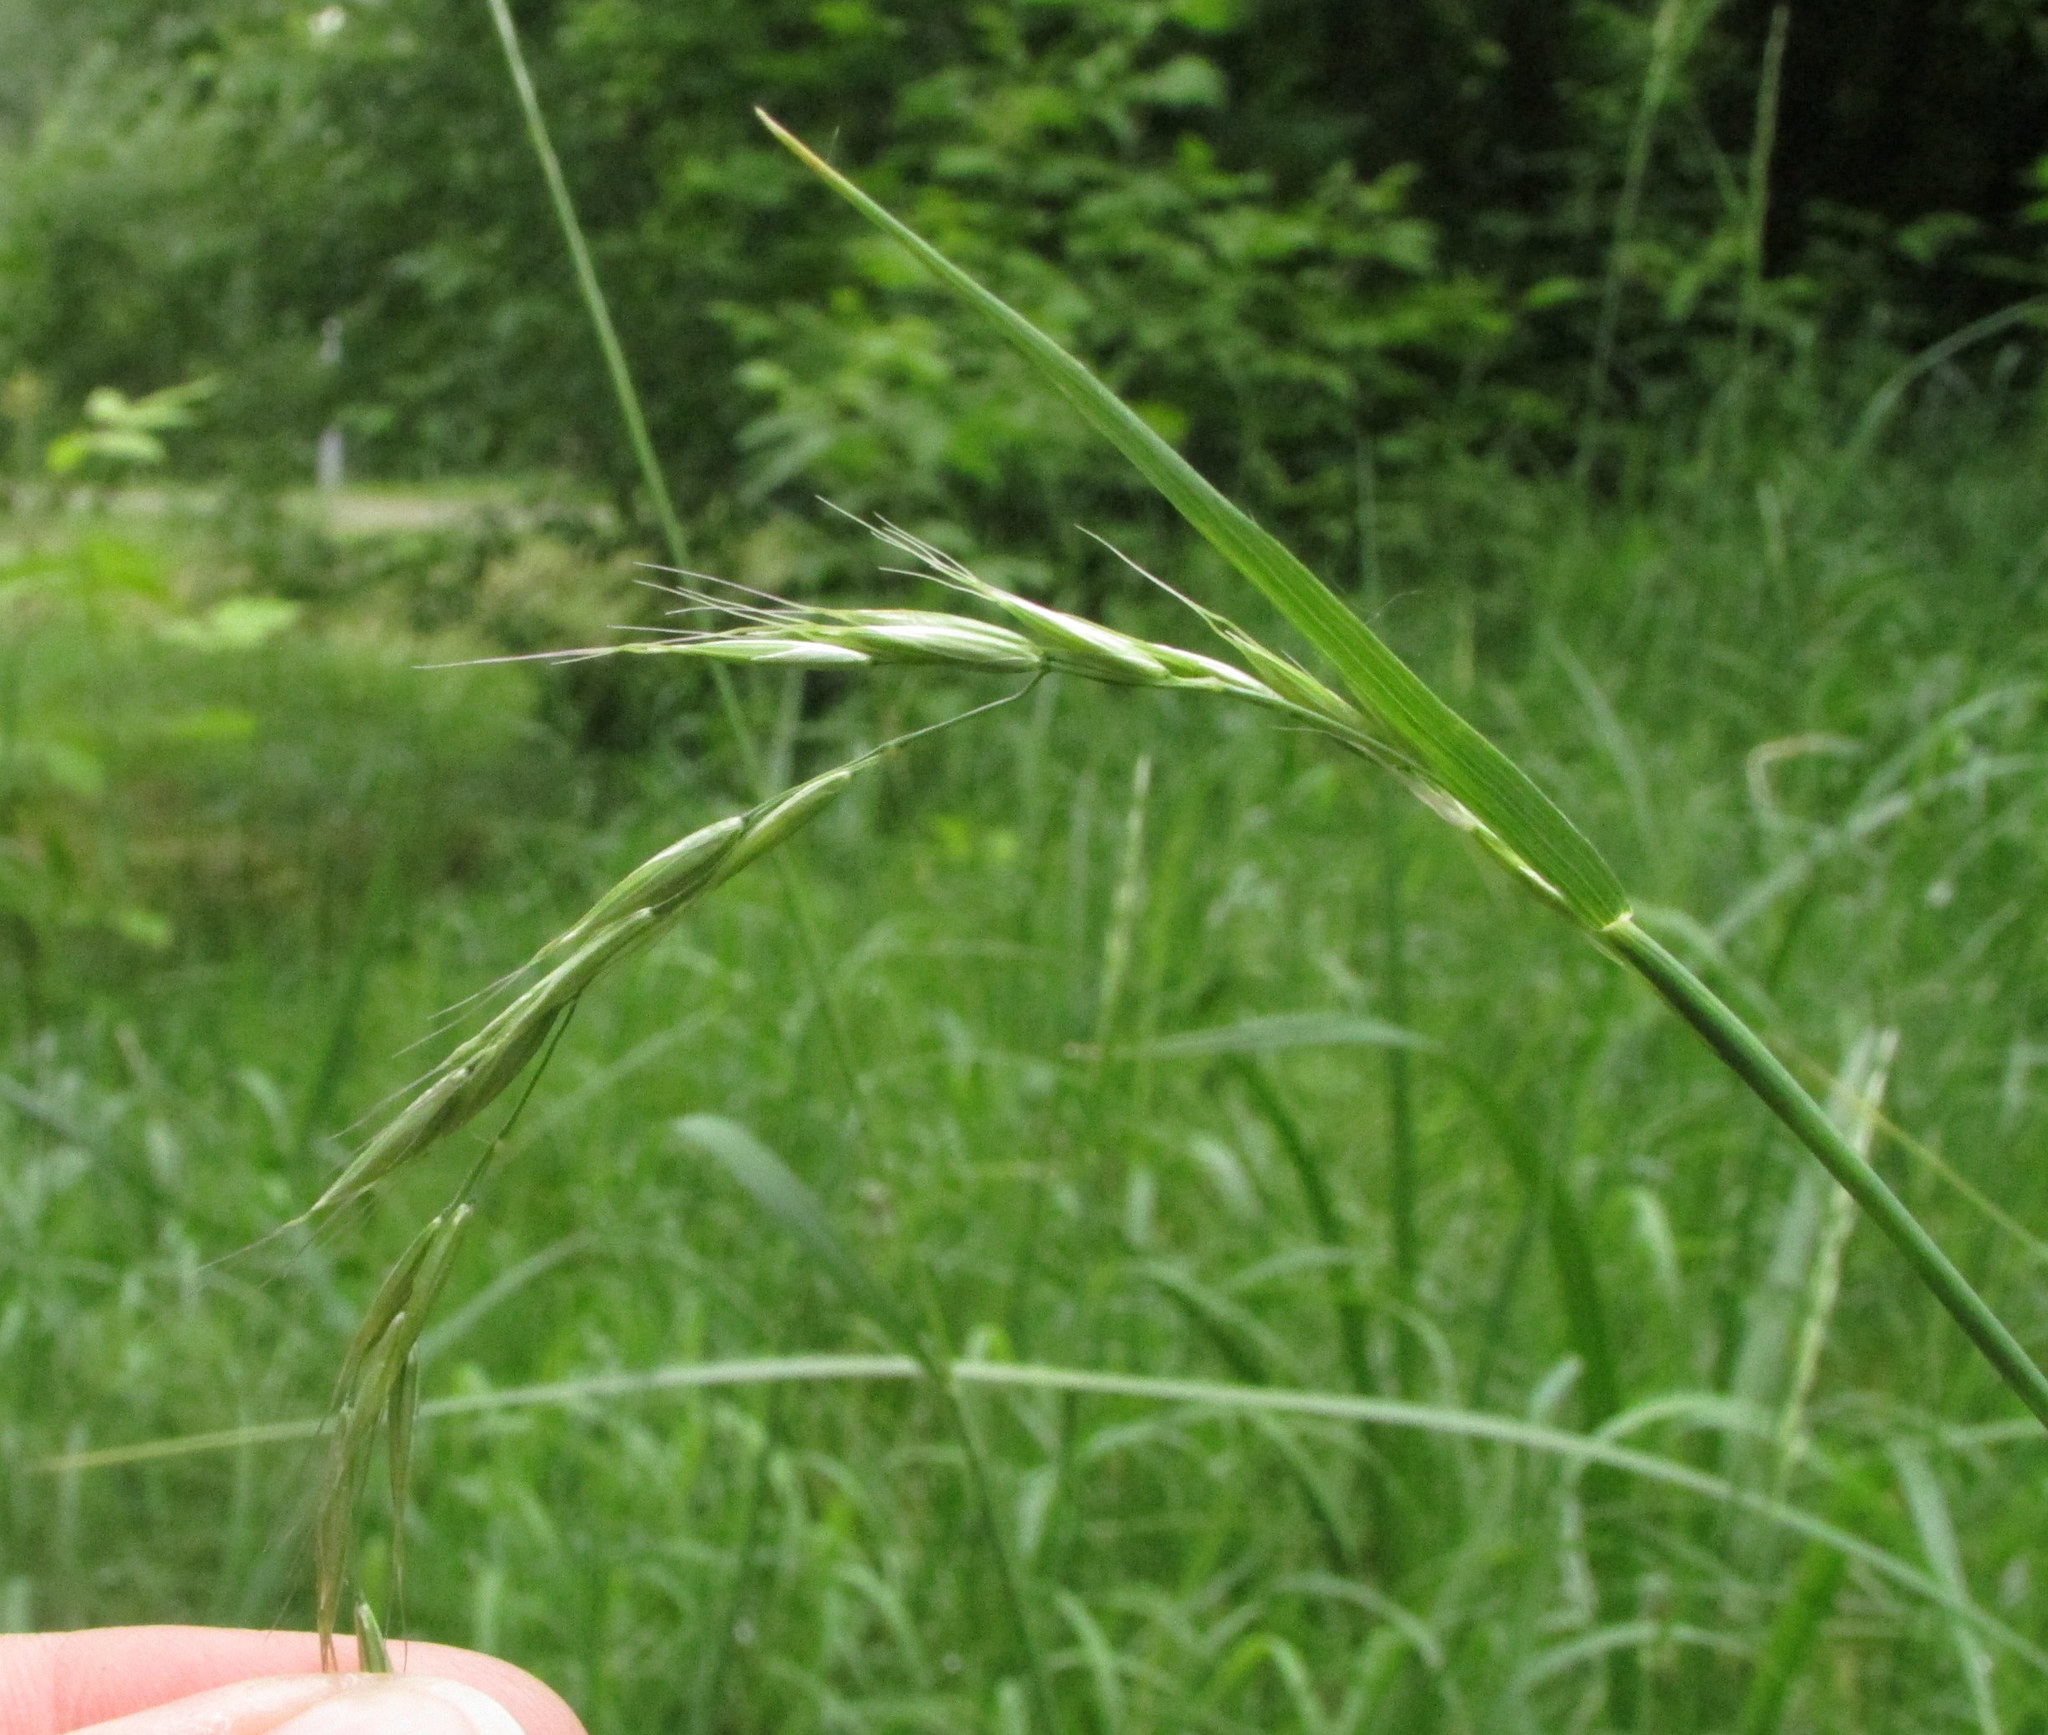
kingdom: Plantae
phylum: Tracheophyta
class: Liliopsida
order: Poales
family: Poaceae
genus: Elymus
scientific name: Elymus caninus
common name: Bearded couch
